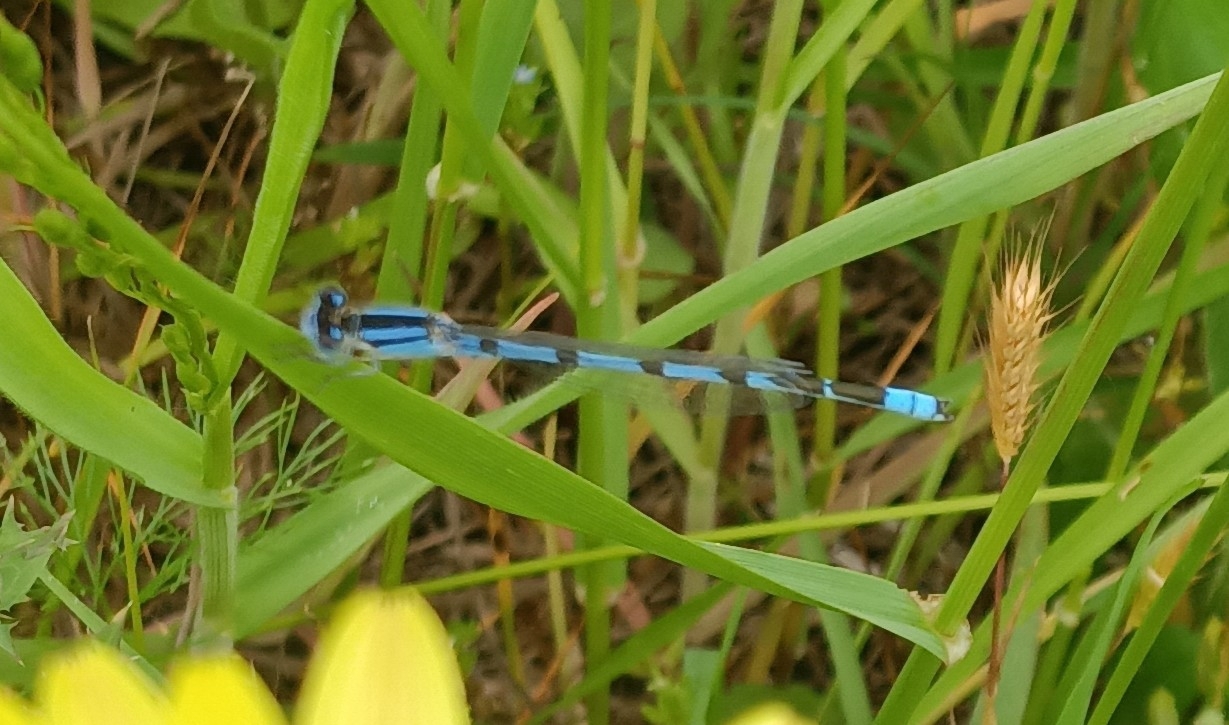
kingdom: Animalia
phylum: Arthropoda
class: Insecta
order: Odonata
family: Coenagrionidae
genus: Enallagma
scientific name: Enallagma civile
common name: Damselfly
